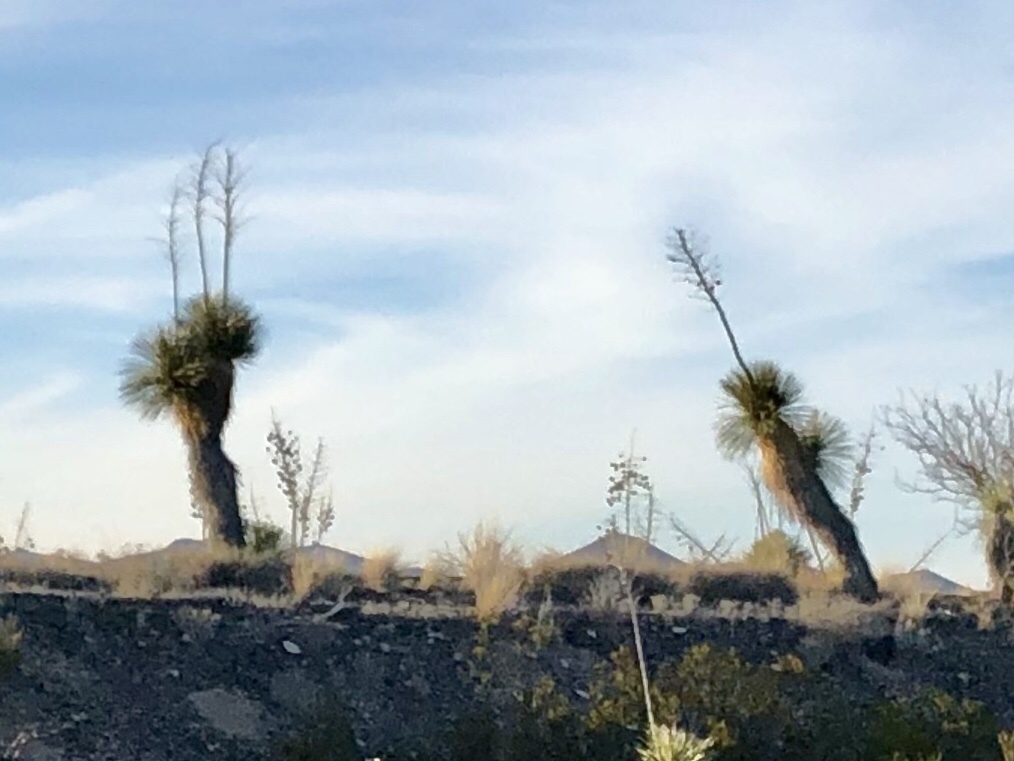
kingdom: Plantae
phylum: Tracheophyta
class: Liliopsida
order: Asparagales
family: Asparagaceae
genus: Yucca
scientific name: Yucca elata
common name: Palmella
